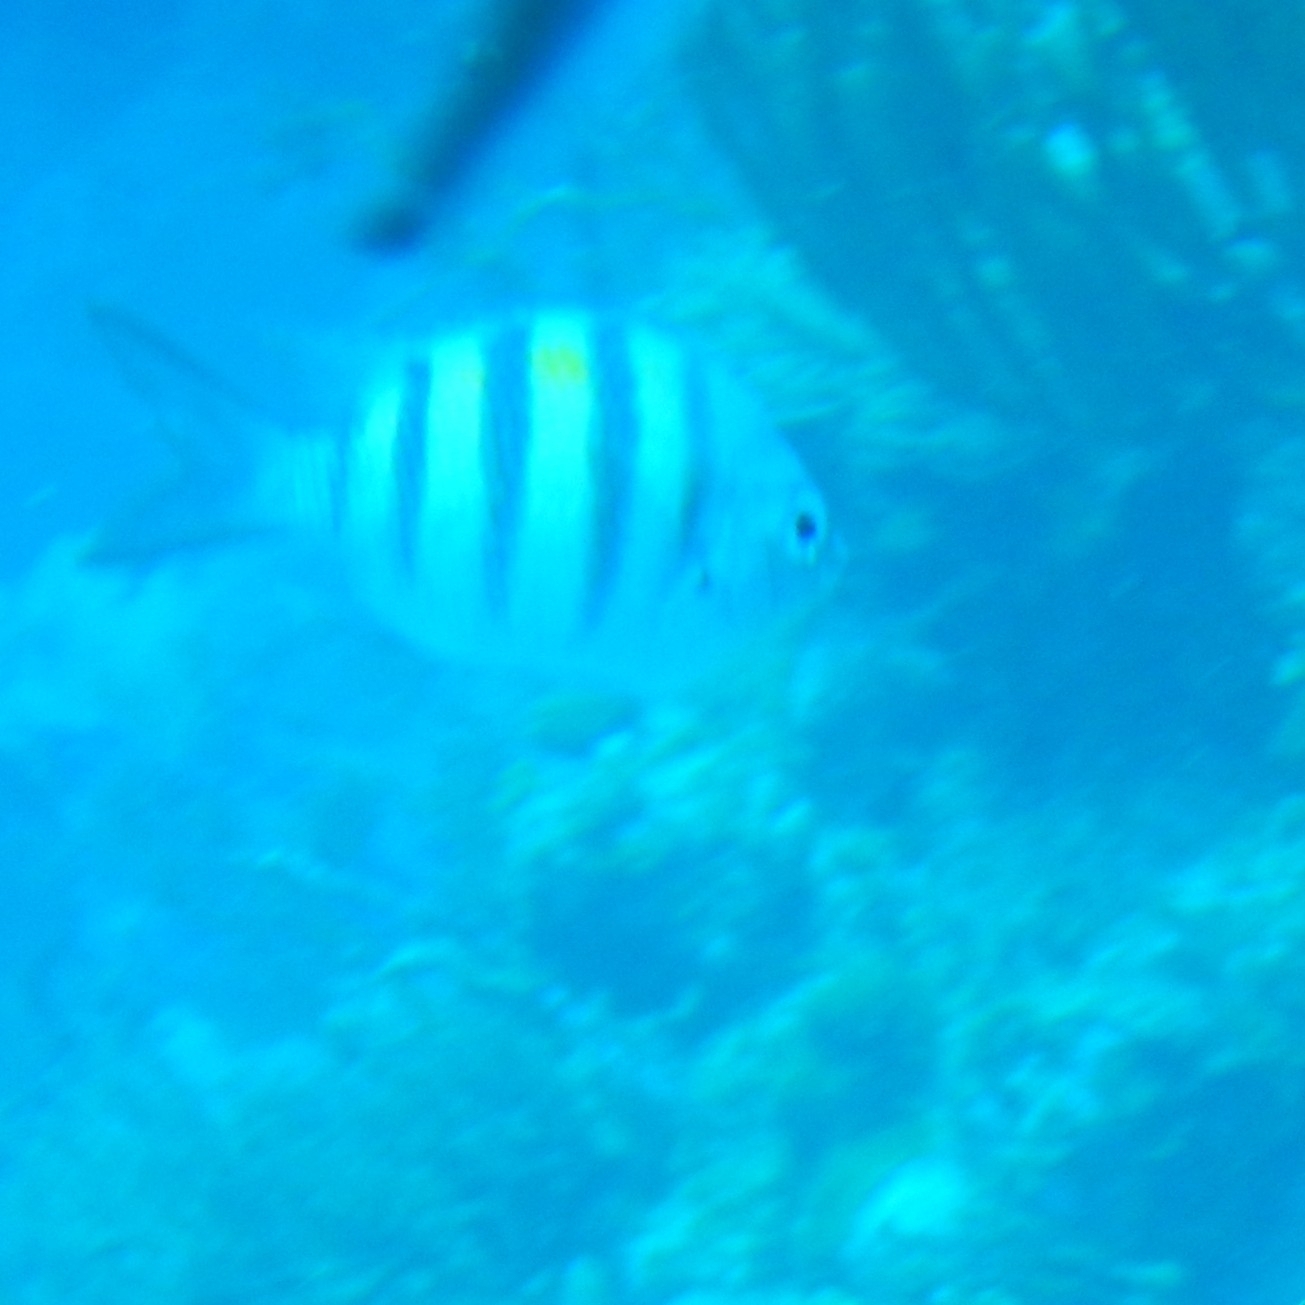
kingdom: Animalia
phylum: Chordata
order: Perciformes
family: Pomacentridae
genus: Abudefduf
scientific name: Abudefduf saxatilis
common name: Sergeant major
